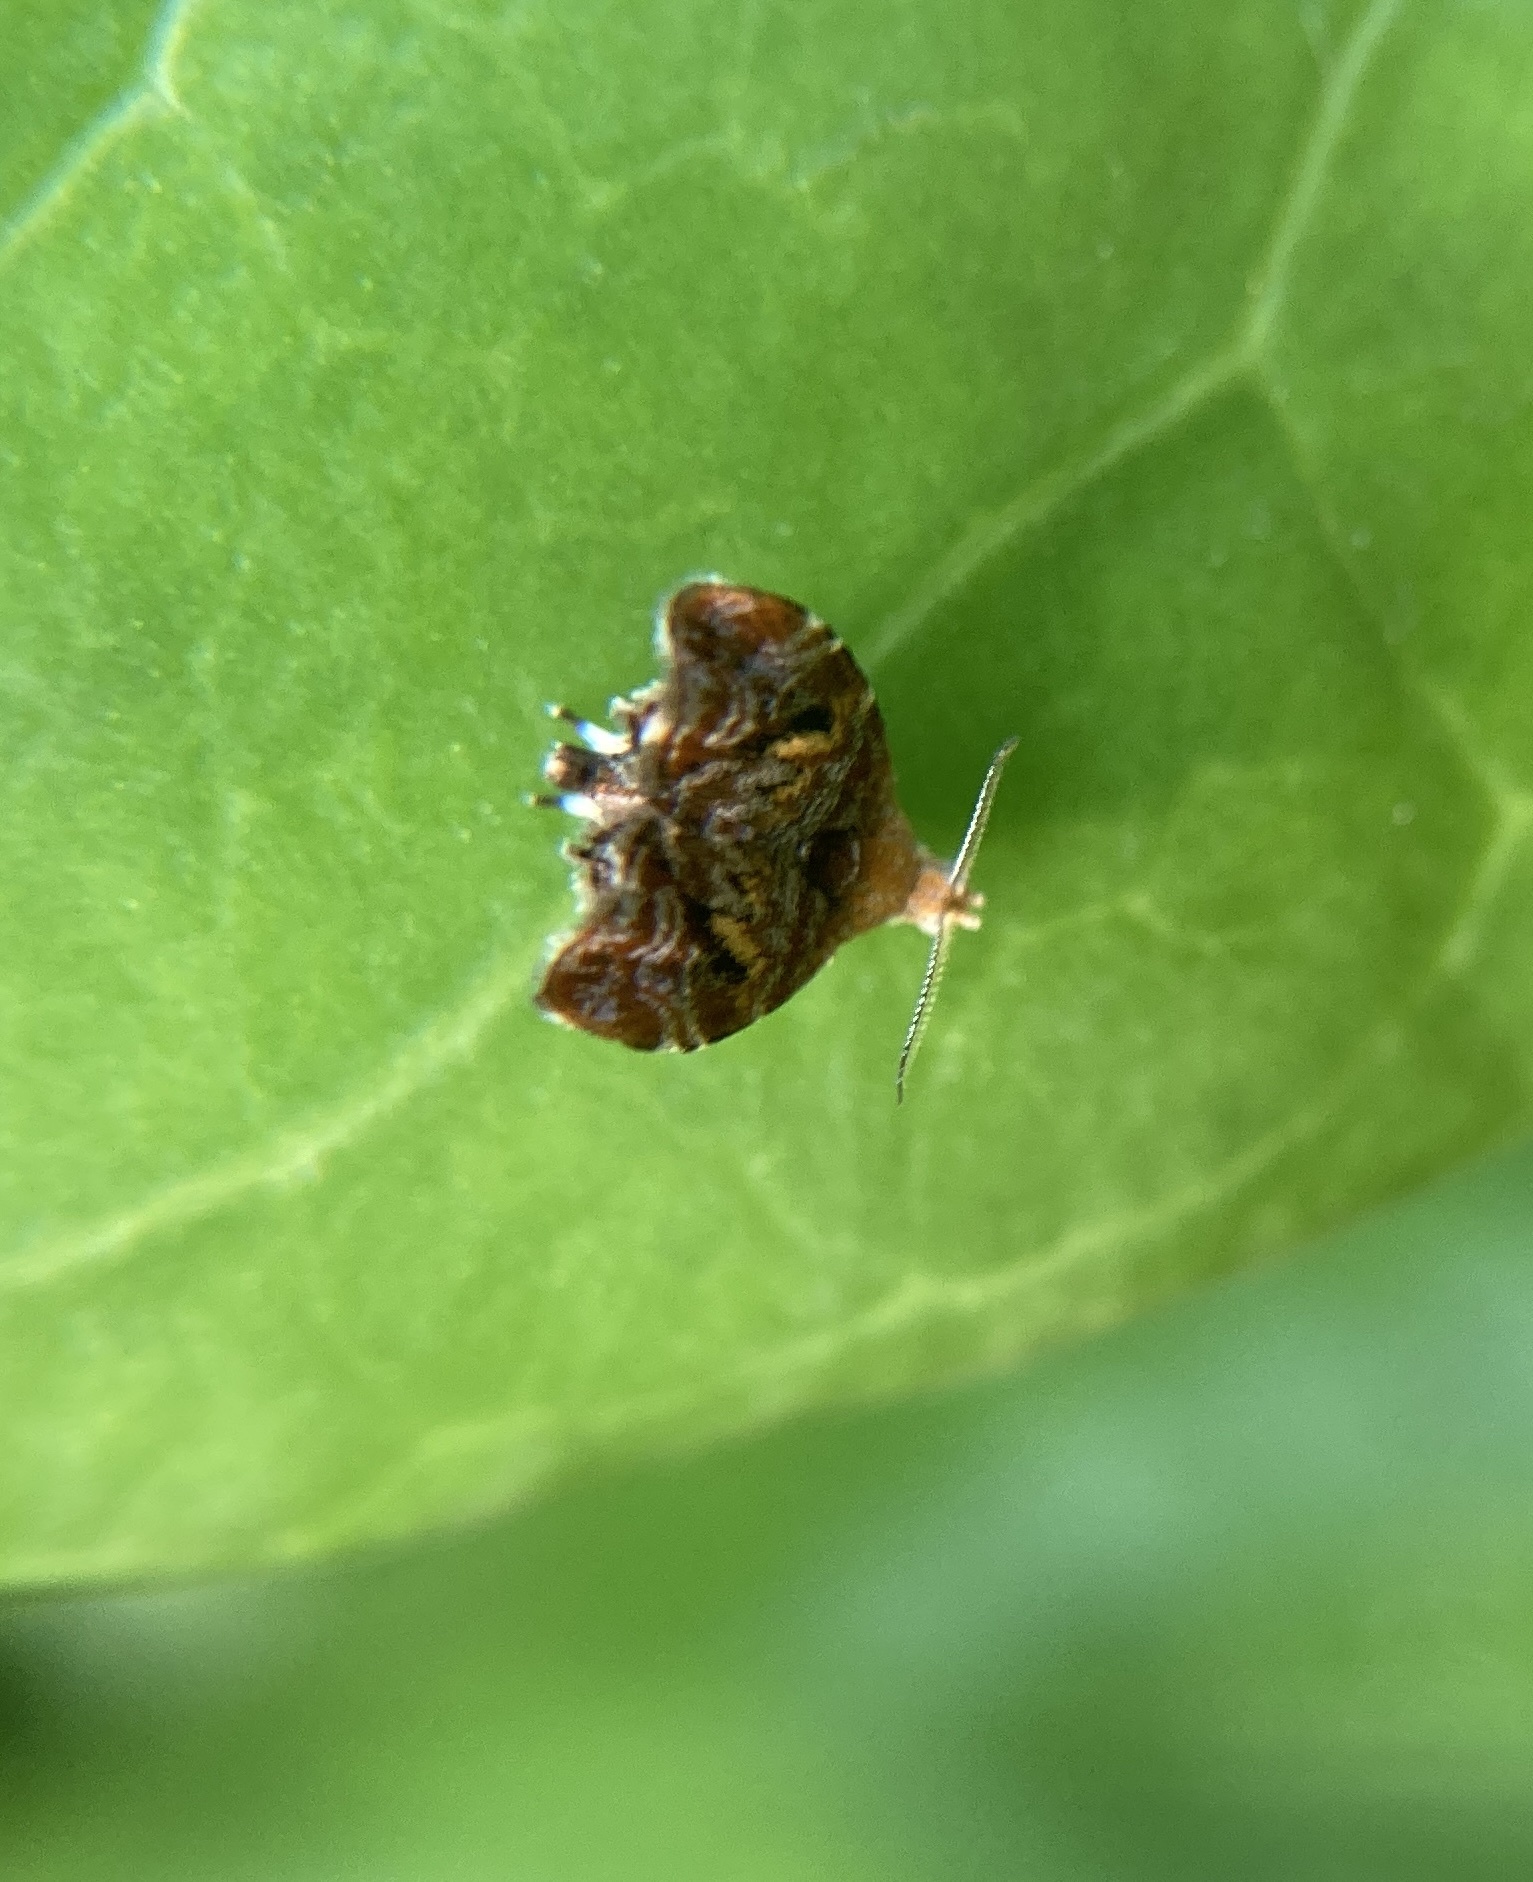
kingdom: Animalia
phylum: Arthropoda
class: Insecta
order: Lepidoptera
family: Choreutidae
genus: Choreutis
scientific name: Choreutis sexfasciella
